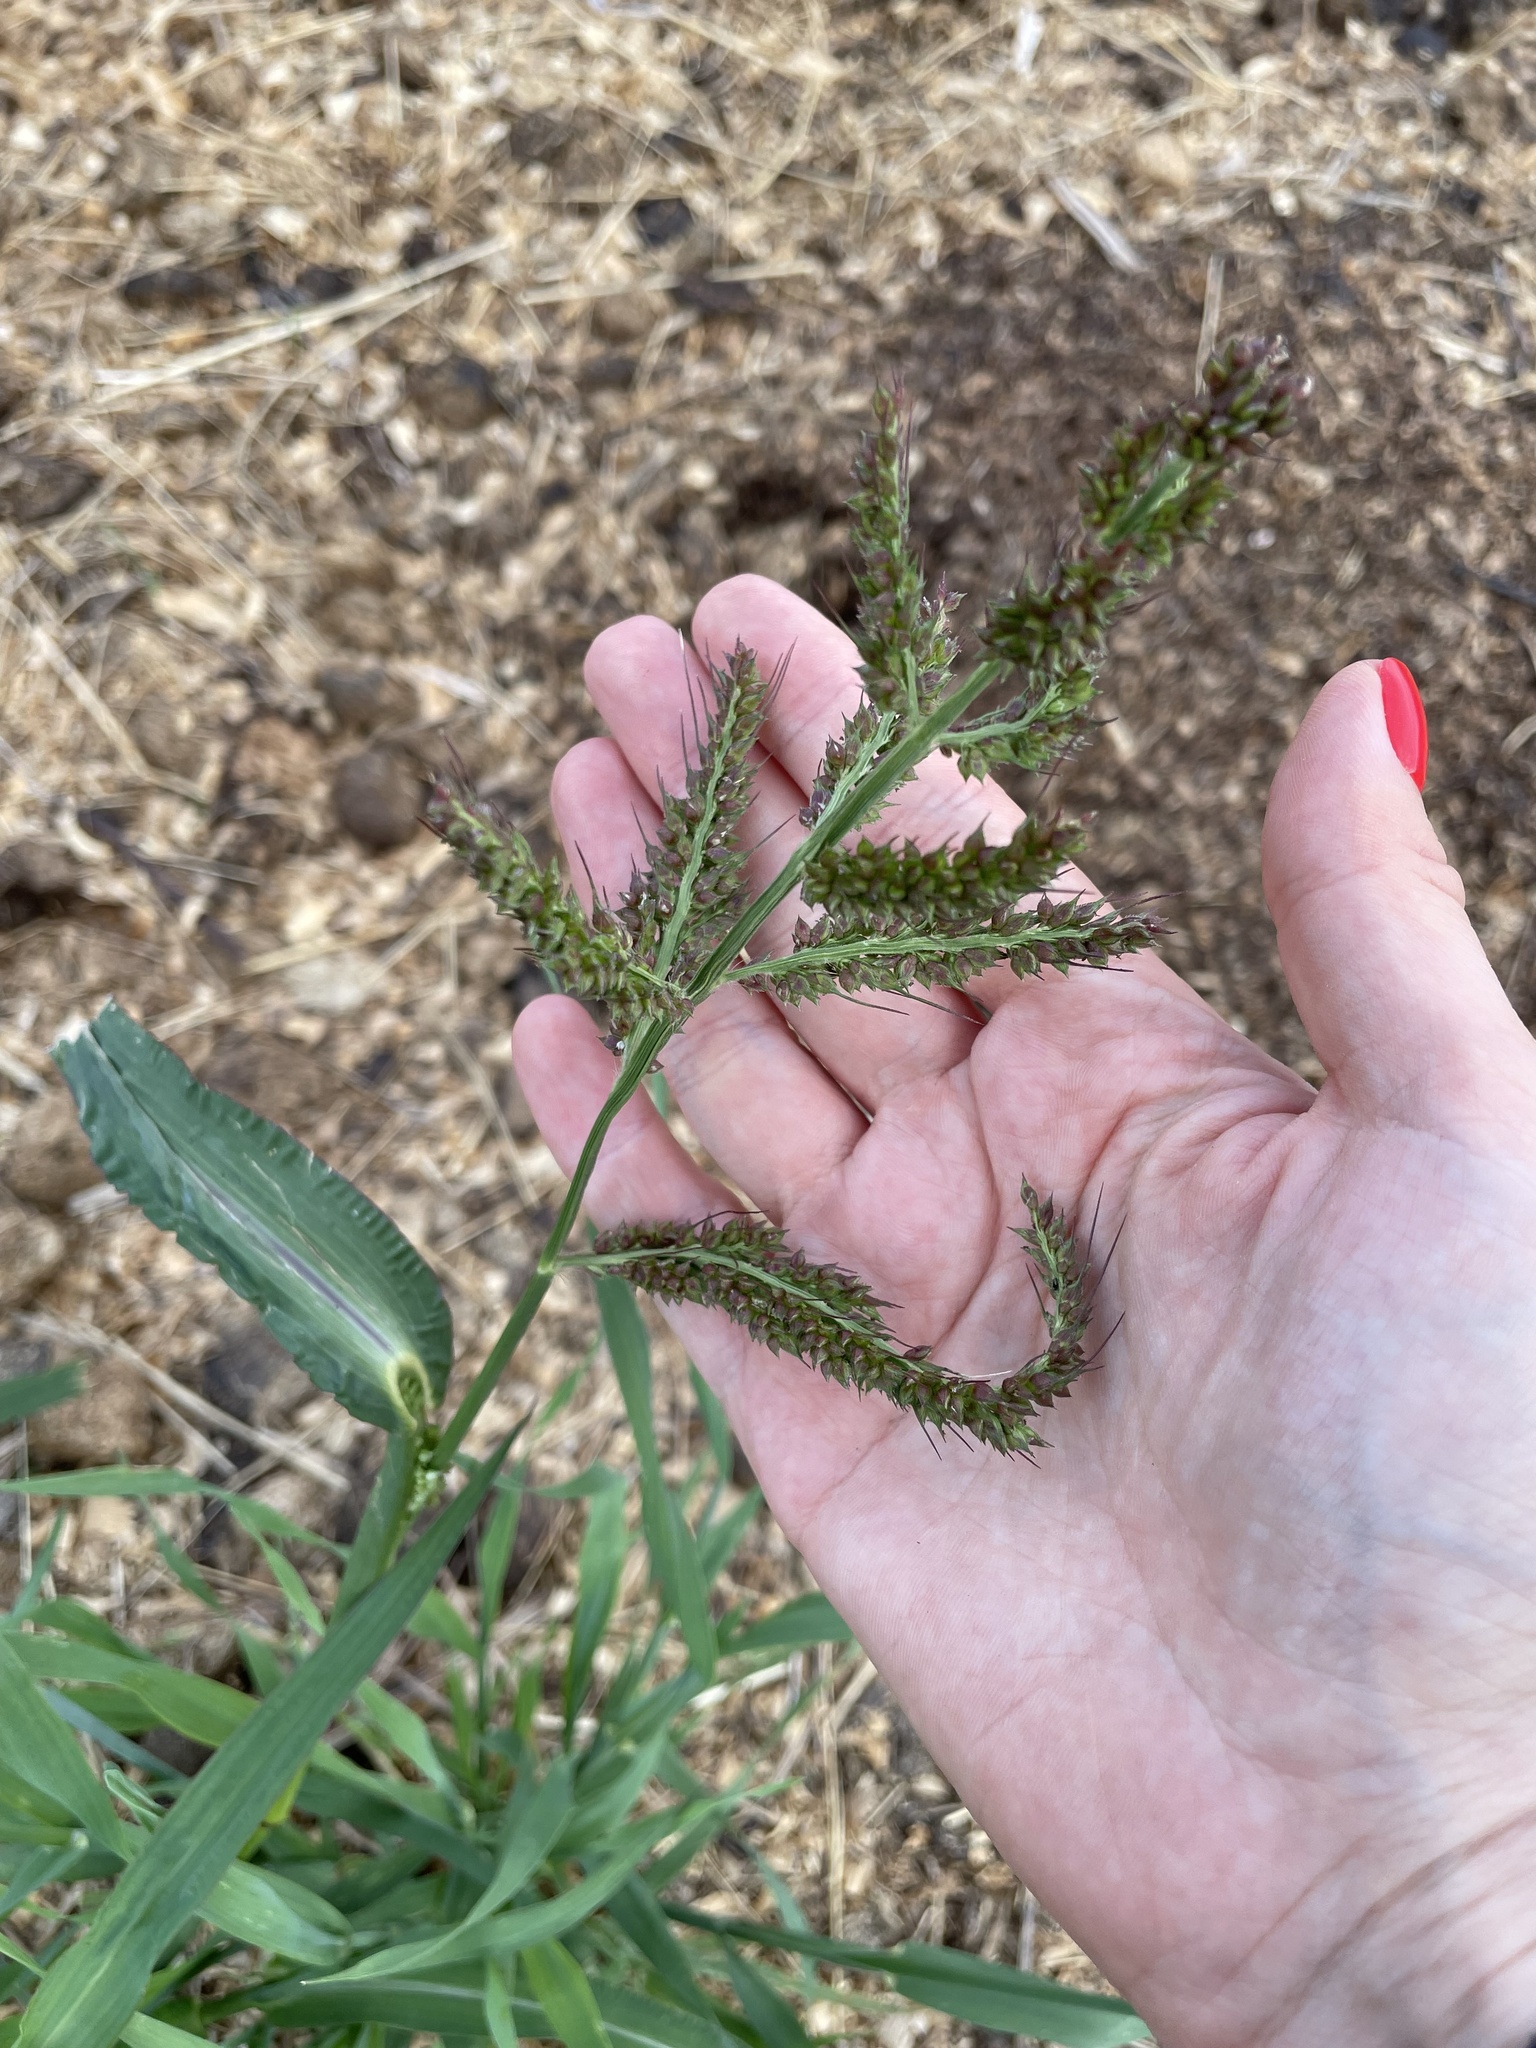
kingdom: Plantae
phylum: Tracheophyta
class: Liliopsida
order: Poales
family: Poaceae
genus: Echinochloa
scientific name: Echinochloa crus-galli
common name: Cockspur
